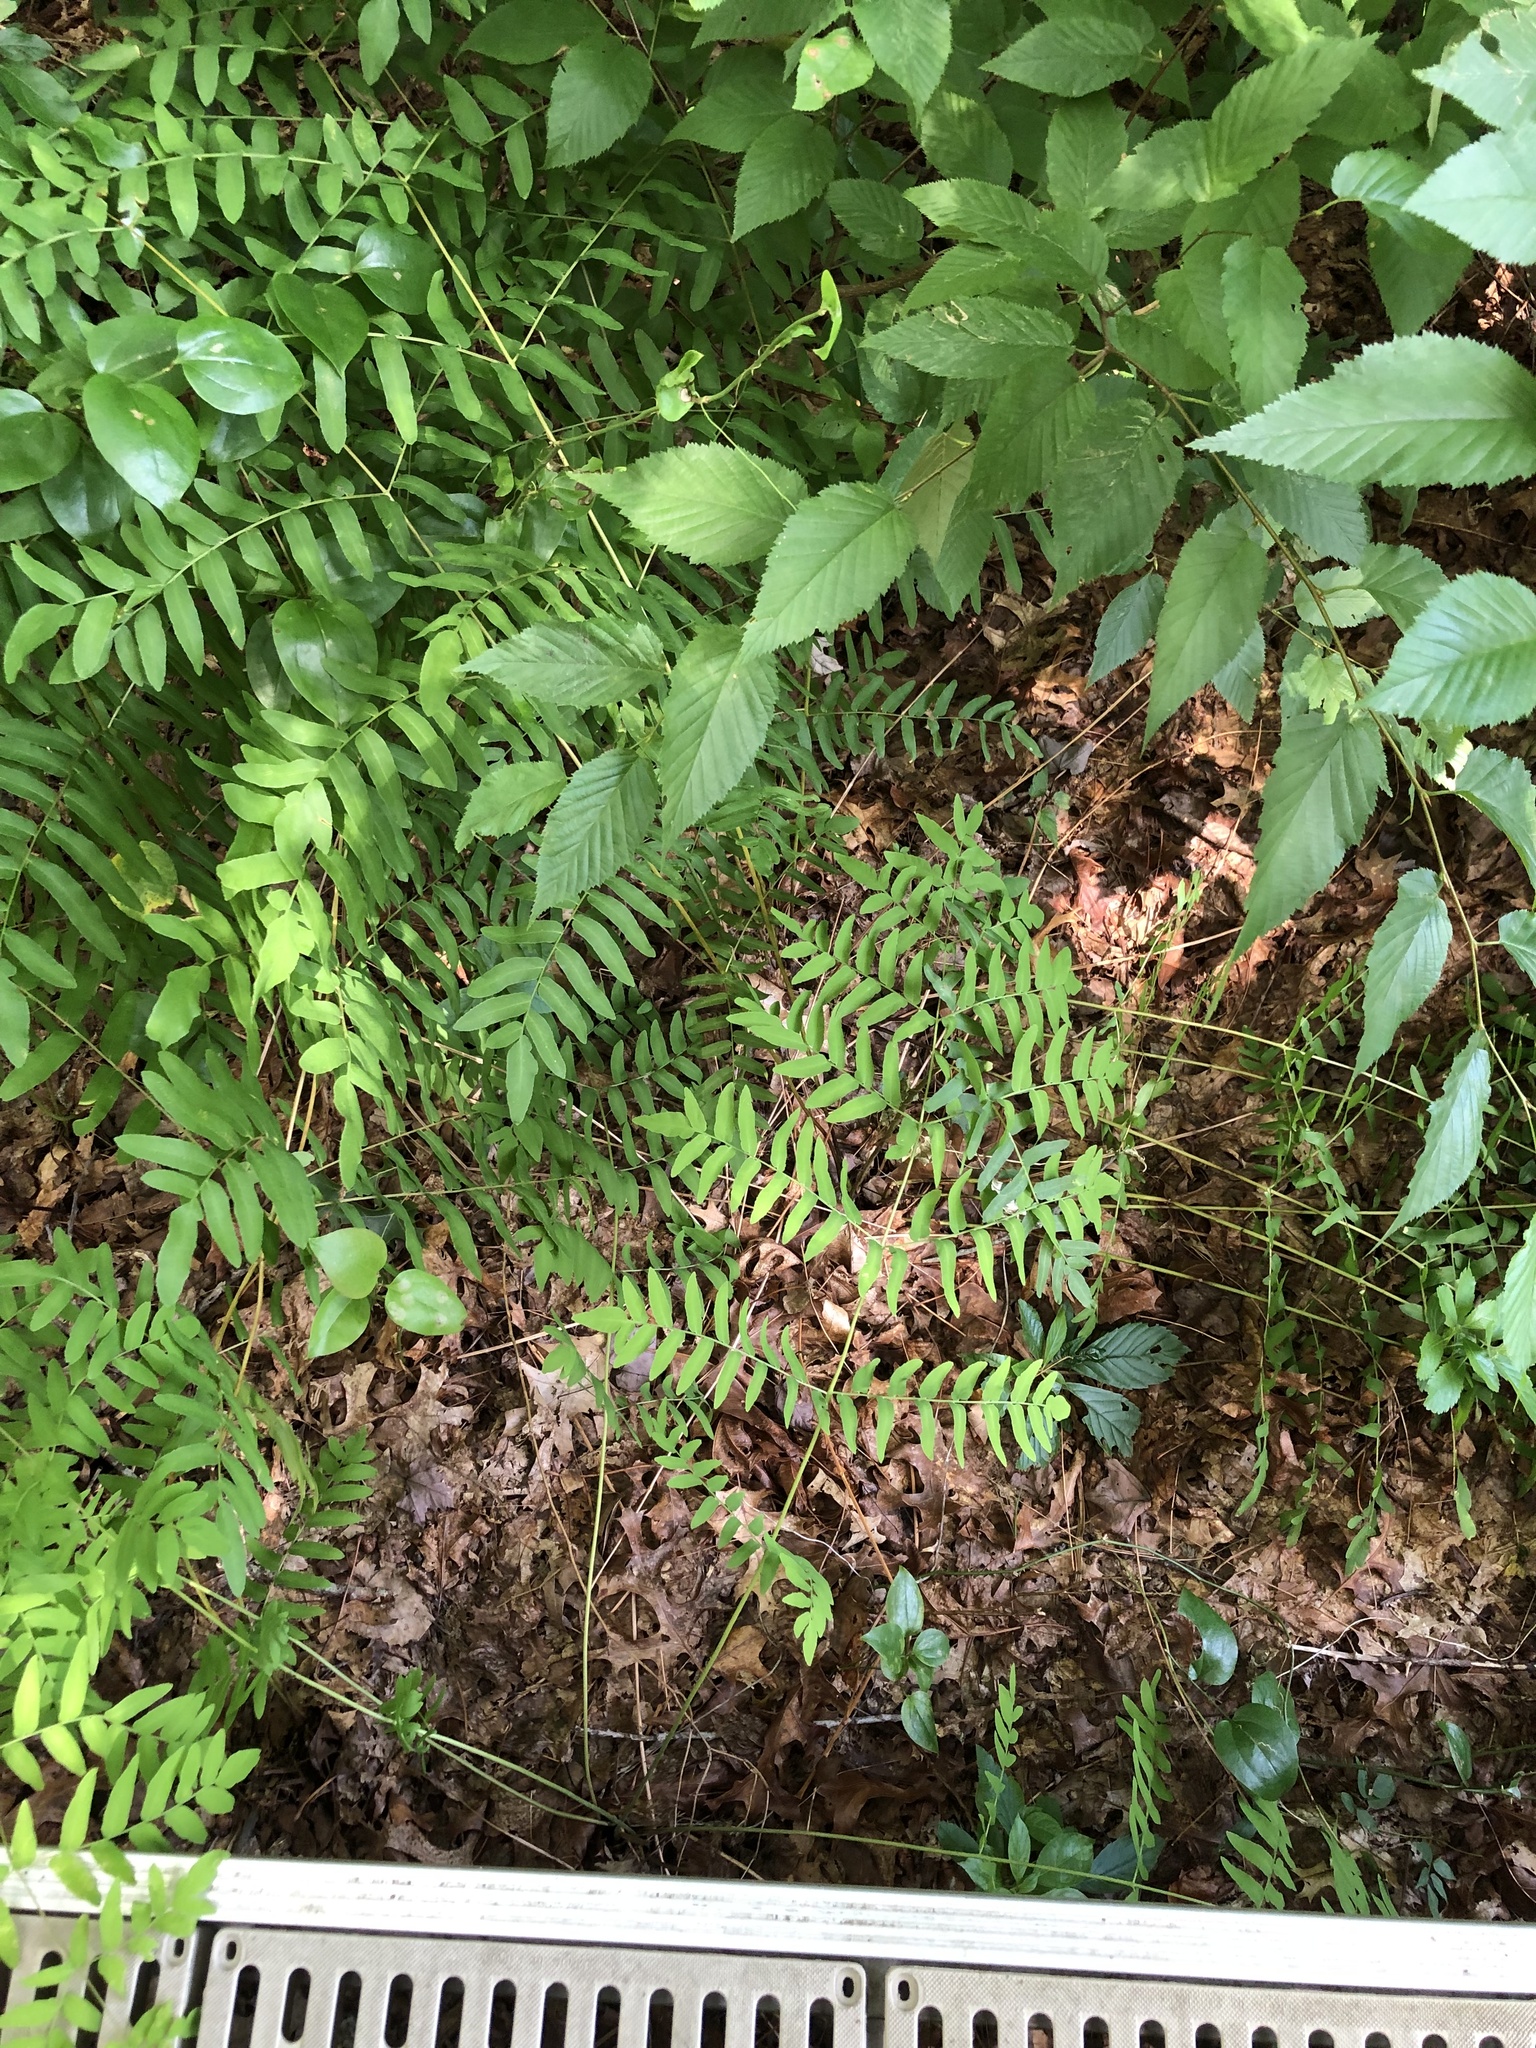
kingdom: Plantae
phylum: Tracheophyta
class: Polypodiopsida
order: Osmundales
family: Osmundaceae
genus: Osmunda
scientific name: Osmunda spectabilis
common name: American royal fern
